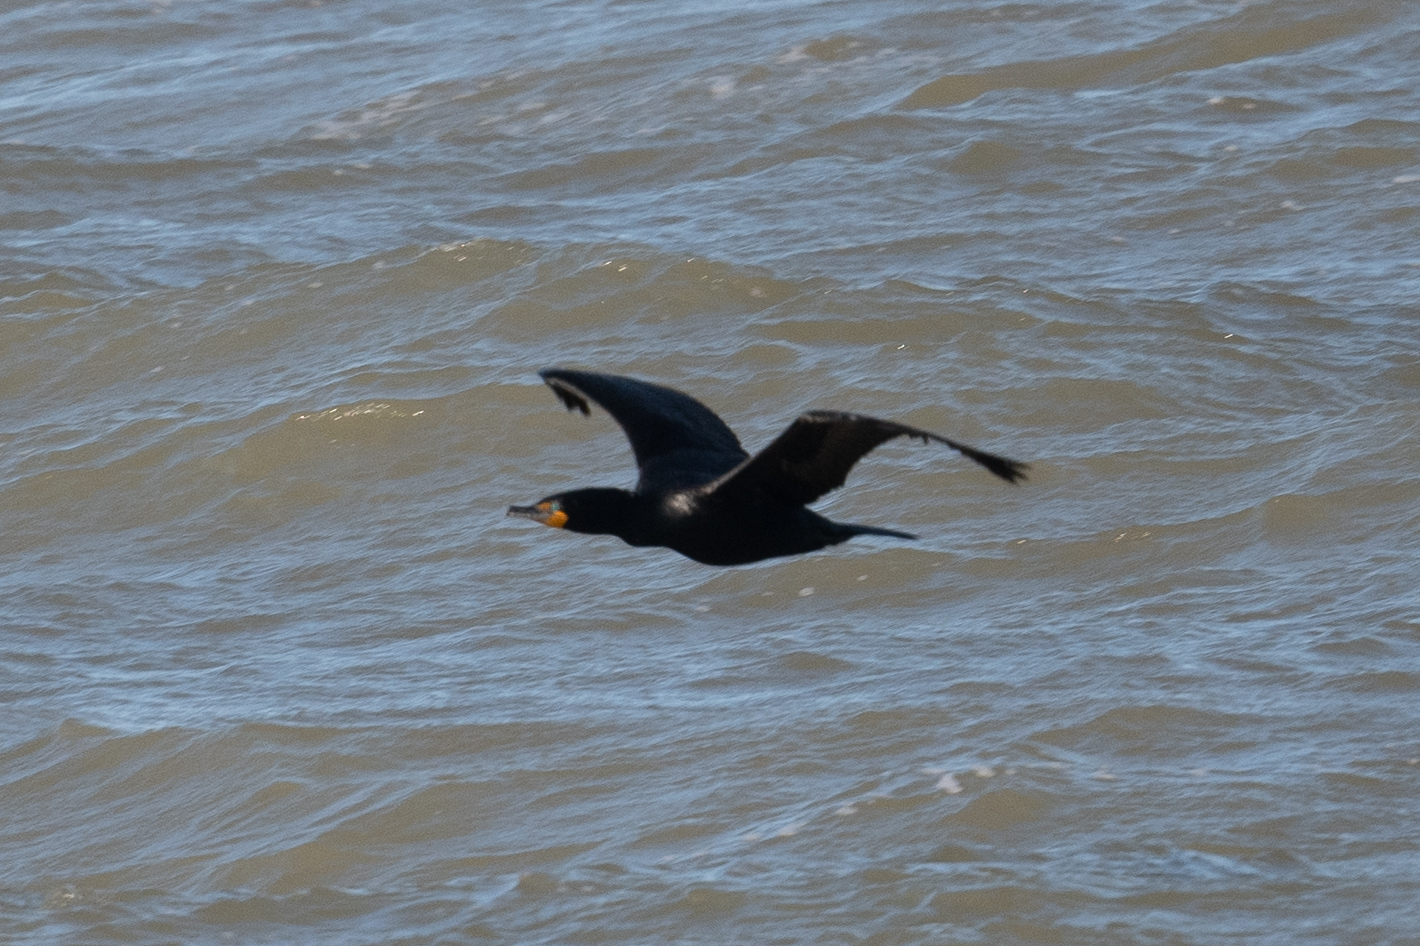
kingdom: Animalia
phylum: Chordata
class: Aves
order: Suliformes
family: Phalacrocoracidae
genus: Phalacrocorax
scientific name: Phalacrocorax auritus
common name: Double-crested cormorant
